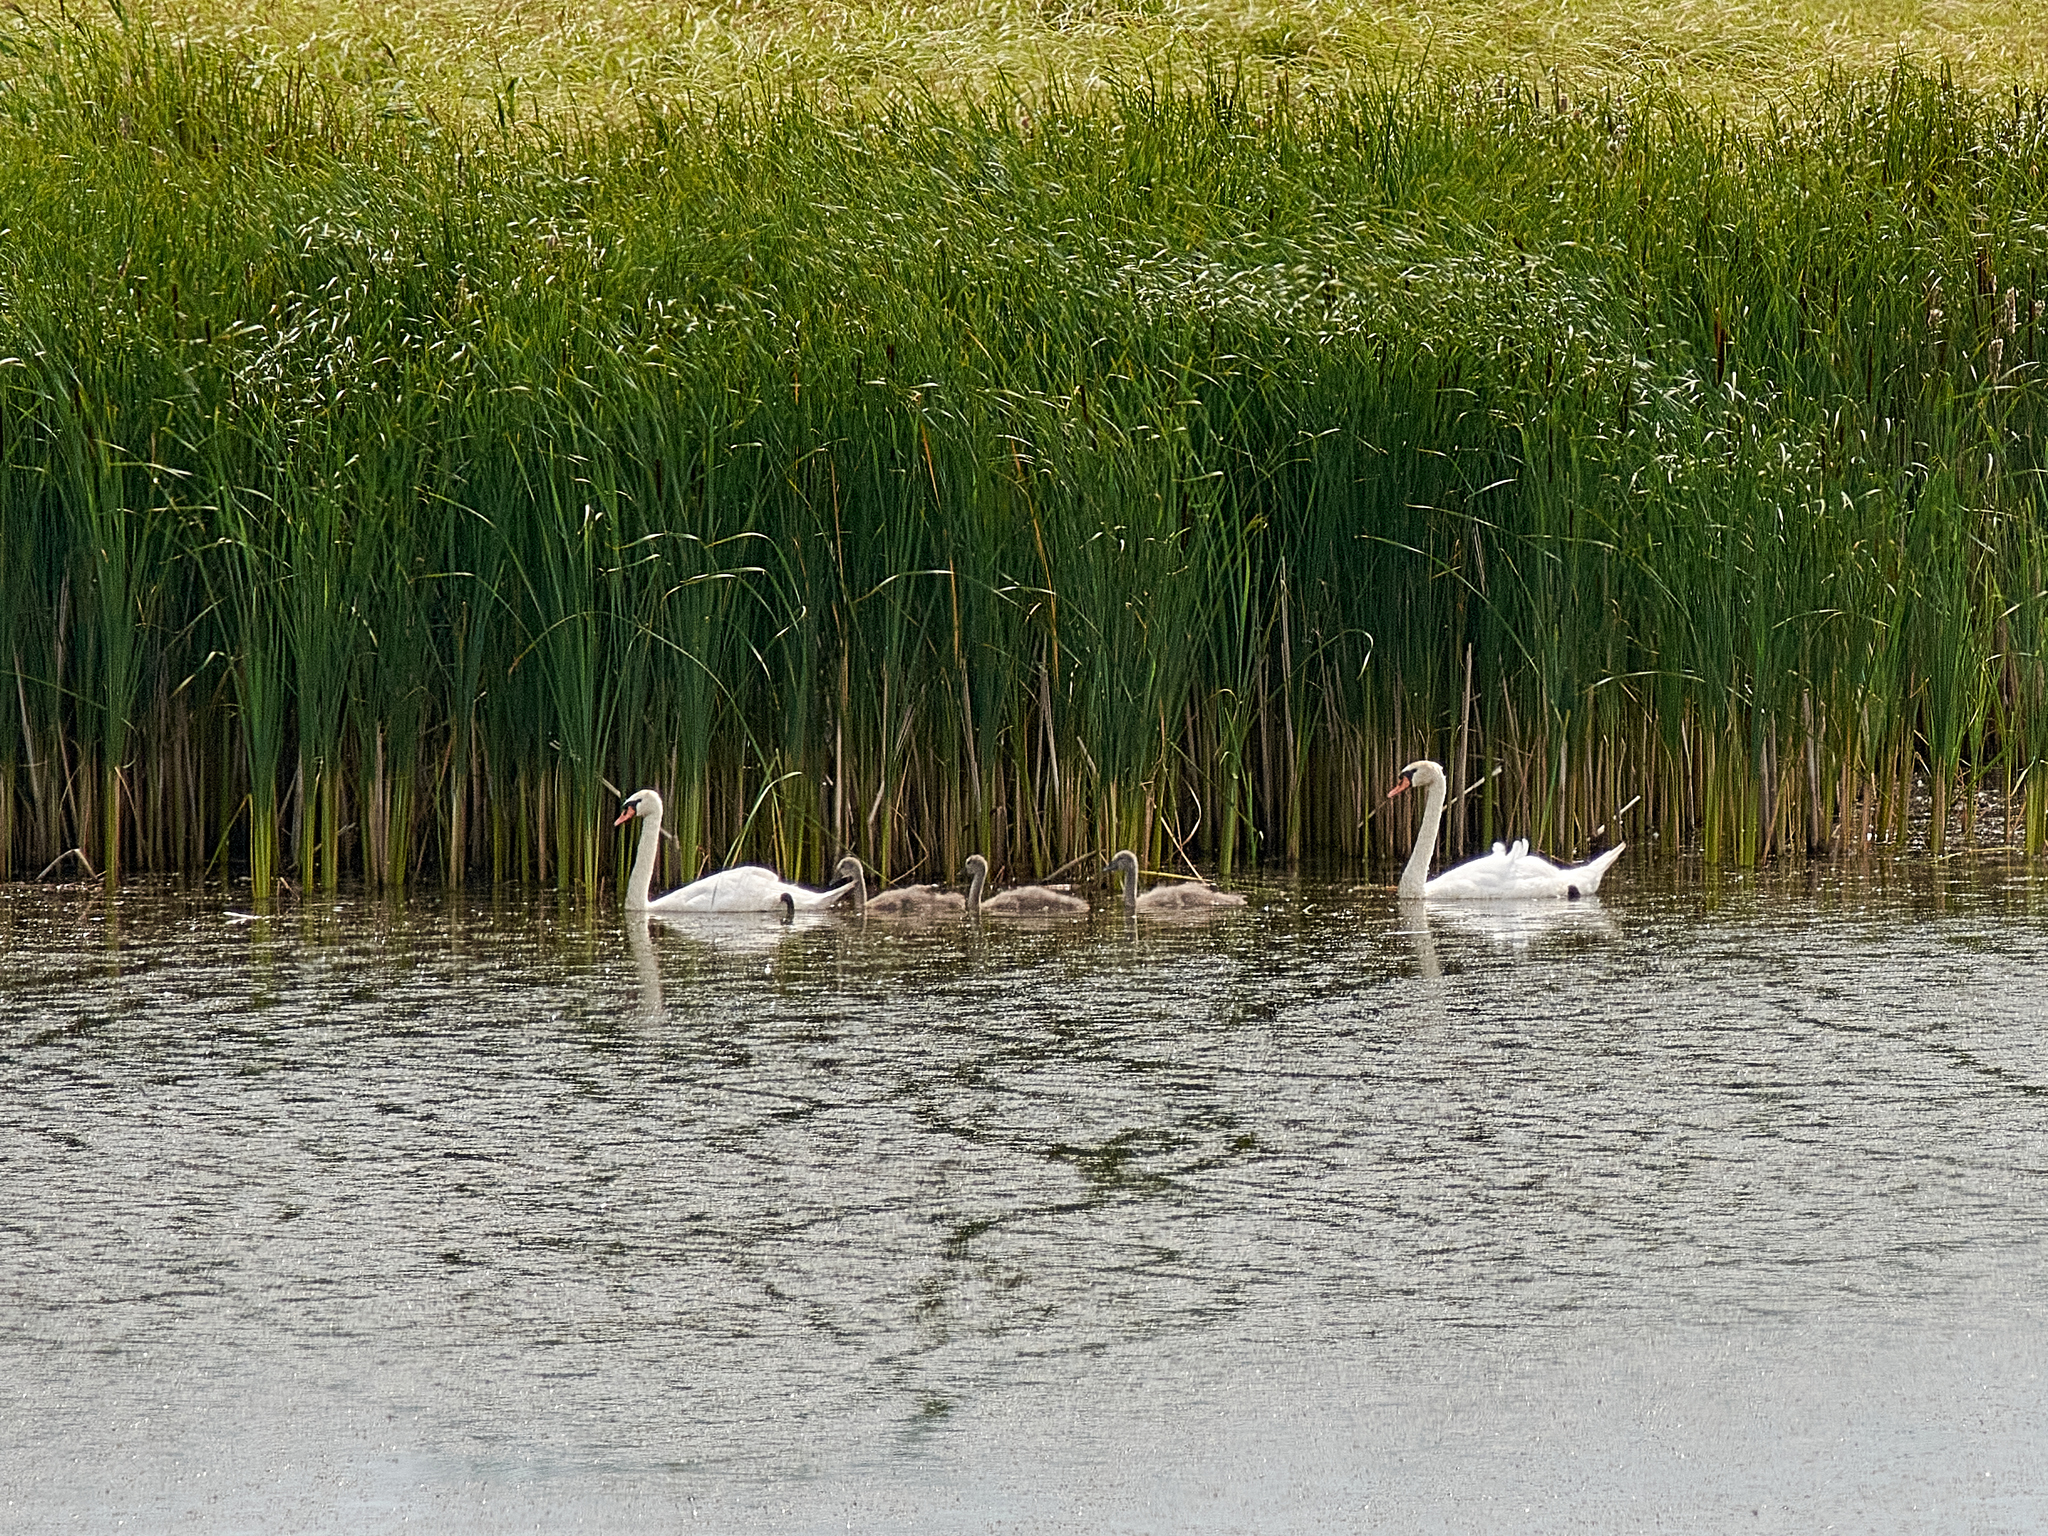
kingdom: Animalia
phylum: Chordata
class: Aves
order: Anseriformes
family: Anatidae
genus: Cygnus
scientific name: Cygnus olor
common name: Mute swan
